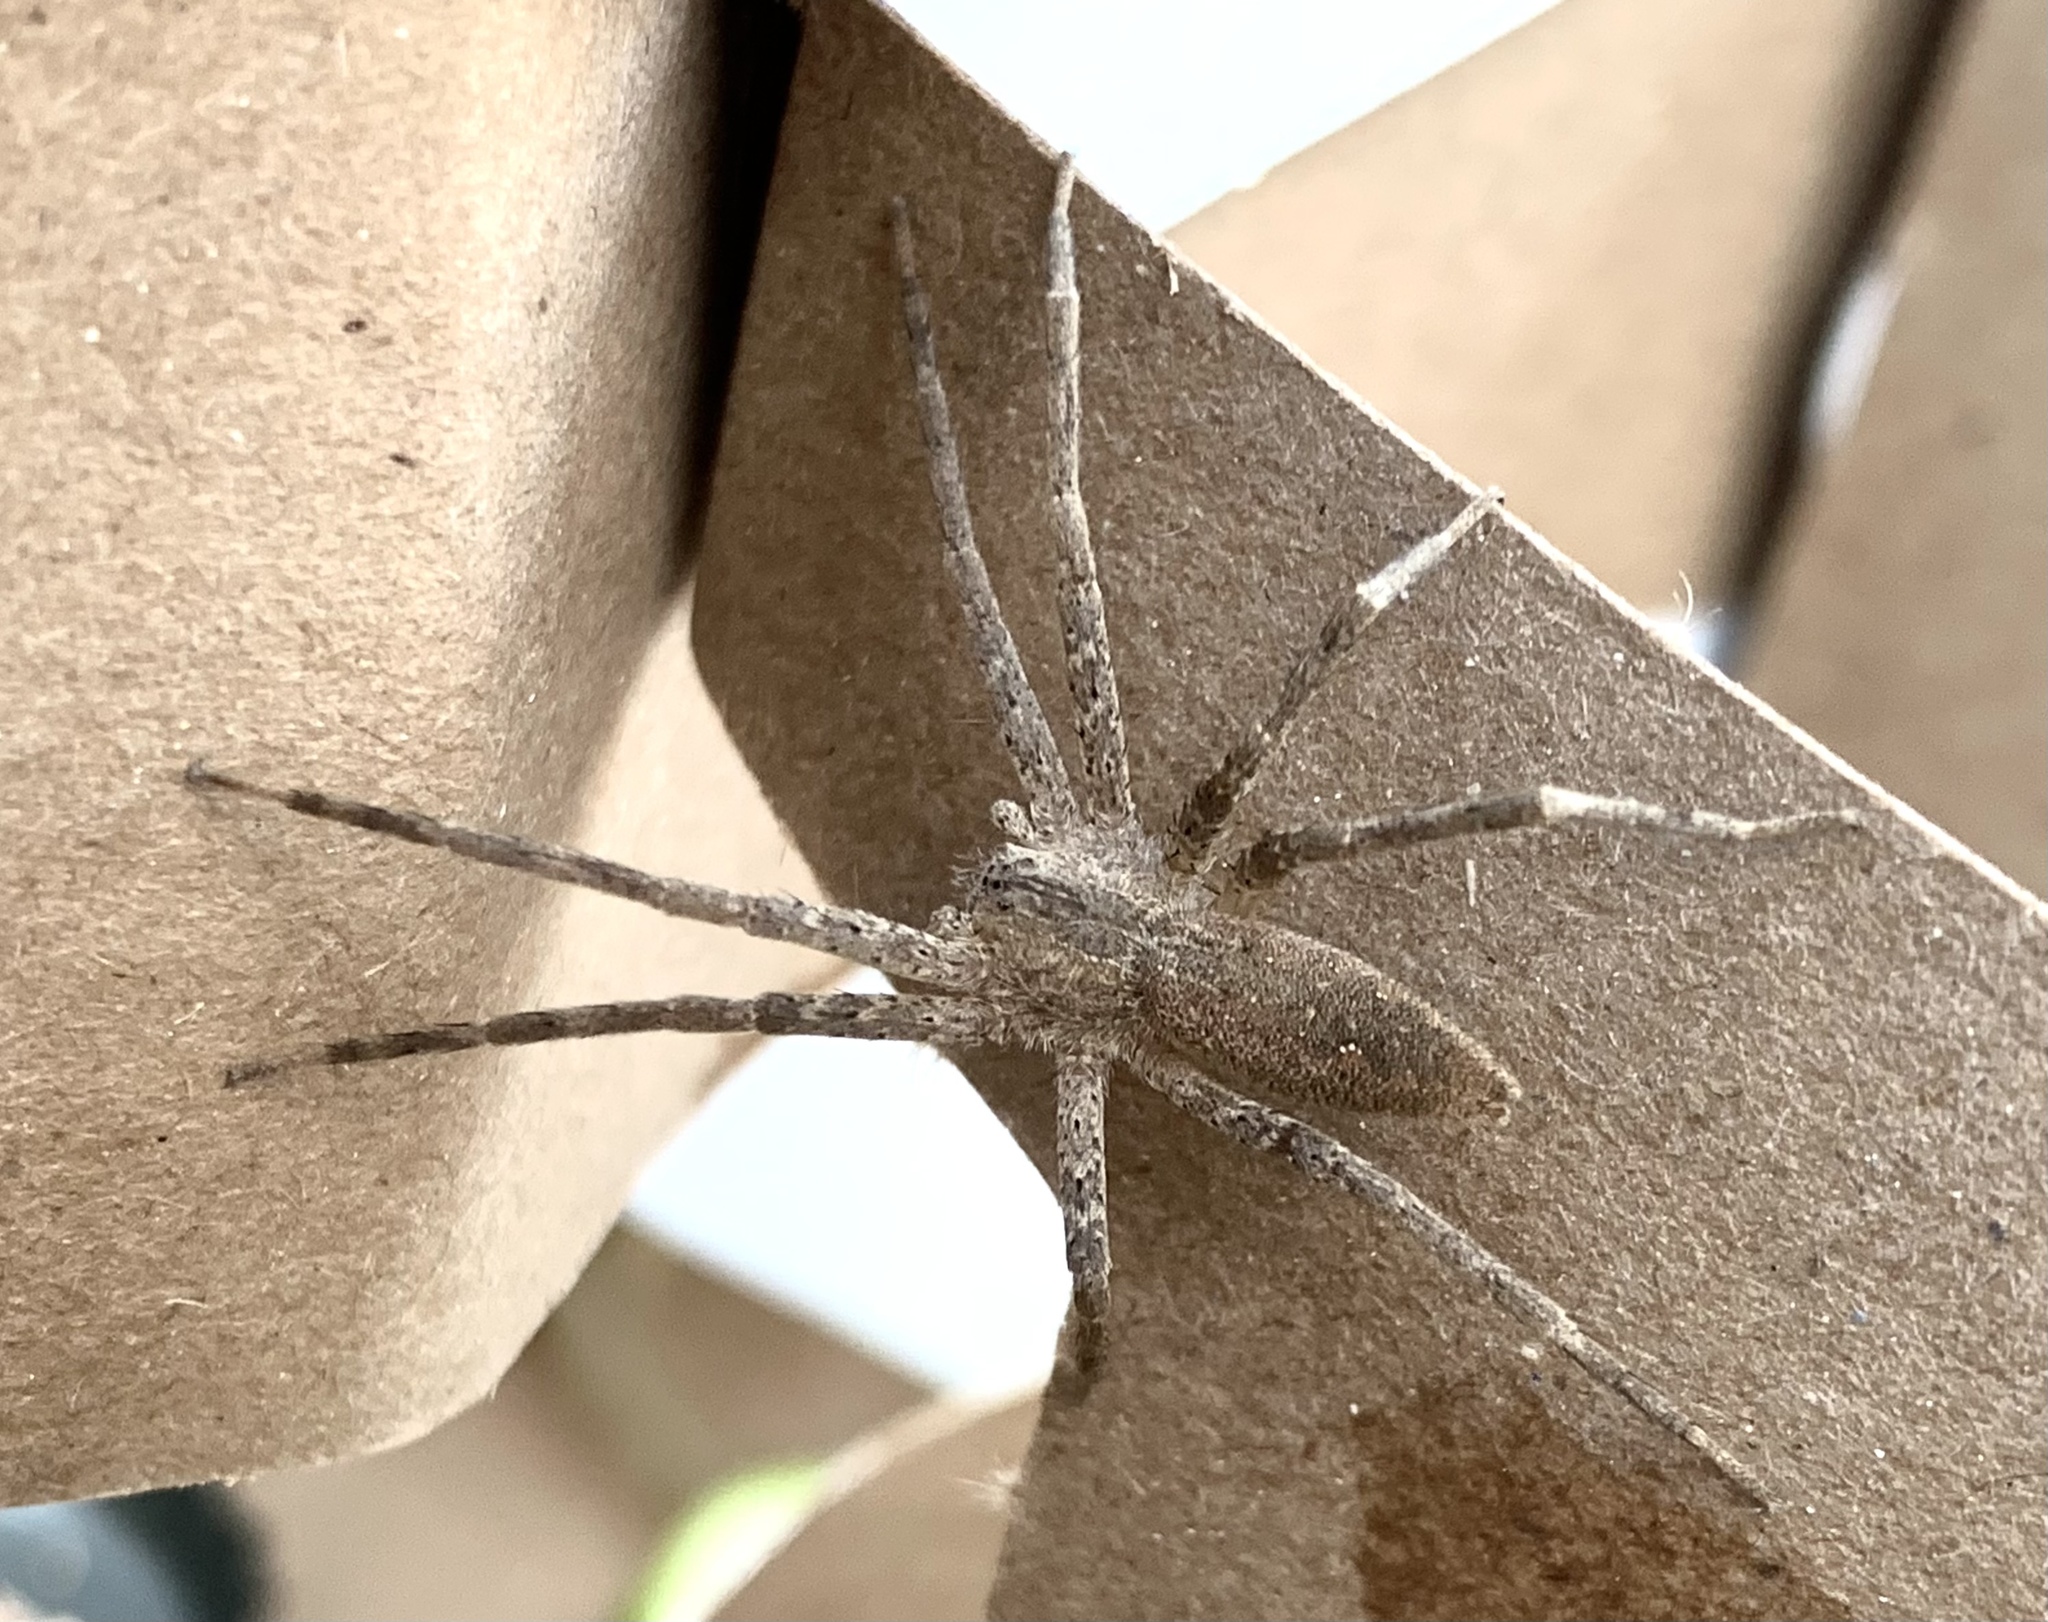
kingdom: Animalia
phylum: Arthropoda
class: Arachnida
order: Araneae
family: Pisauridae
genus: Pisaurina
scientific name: Pisaurina mira
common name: American nursery web spider
